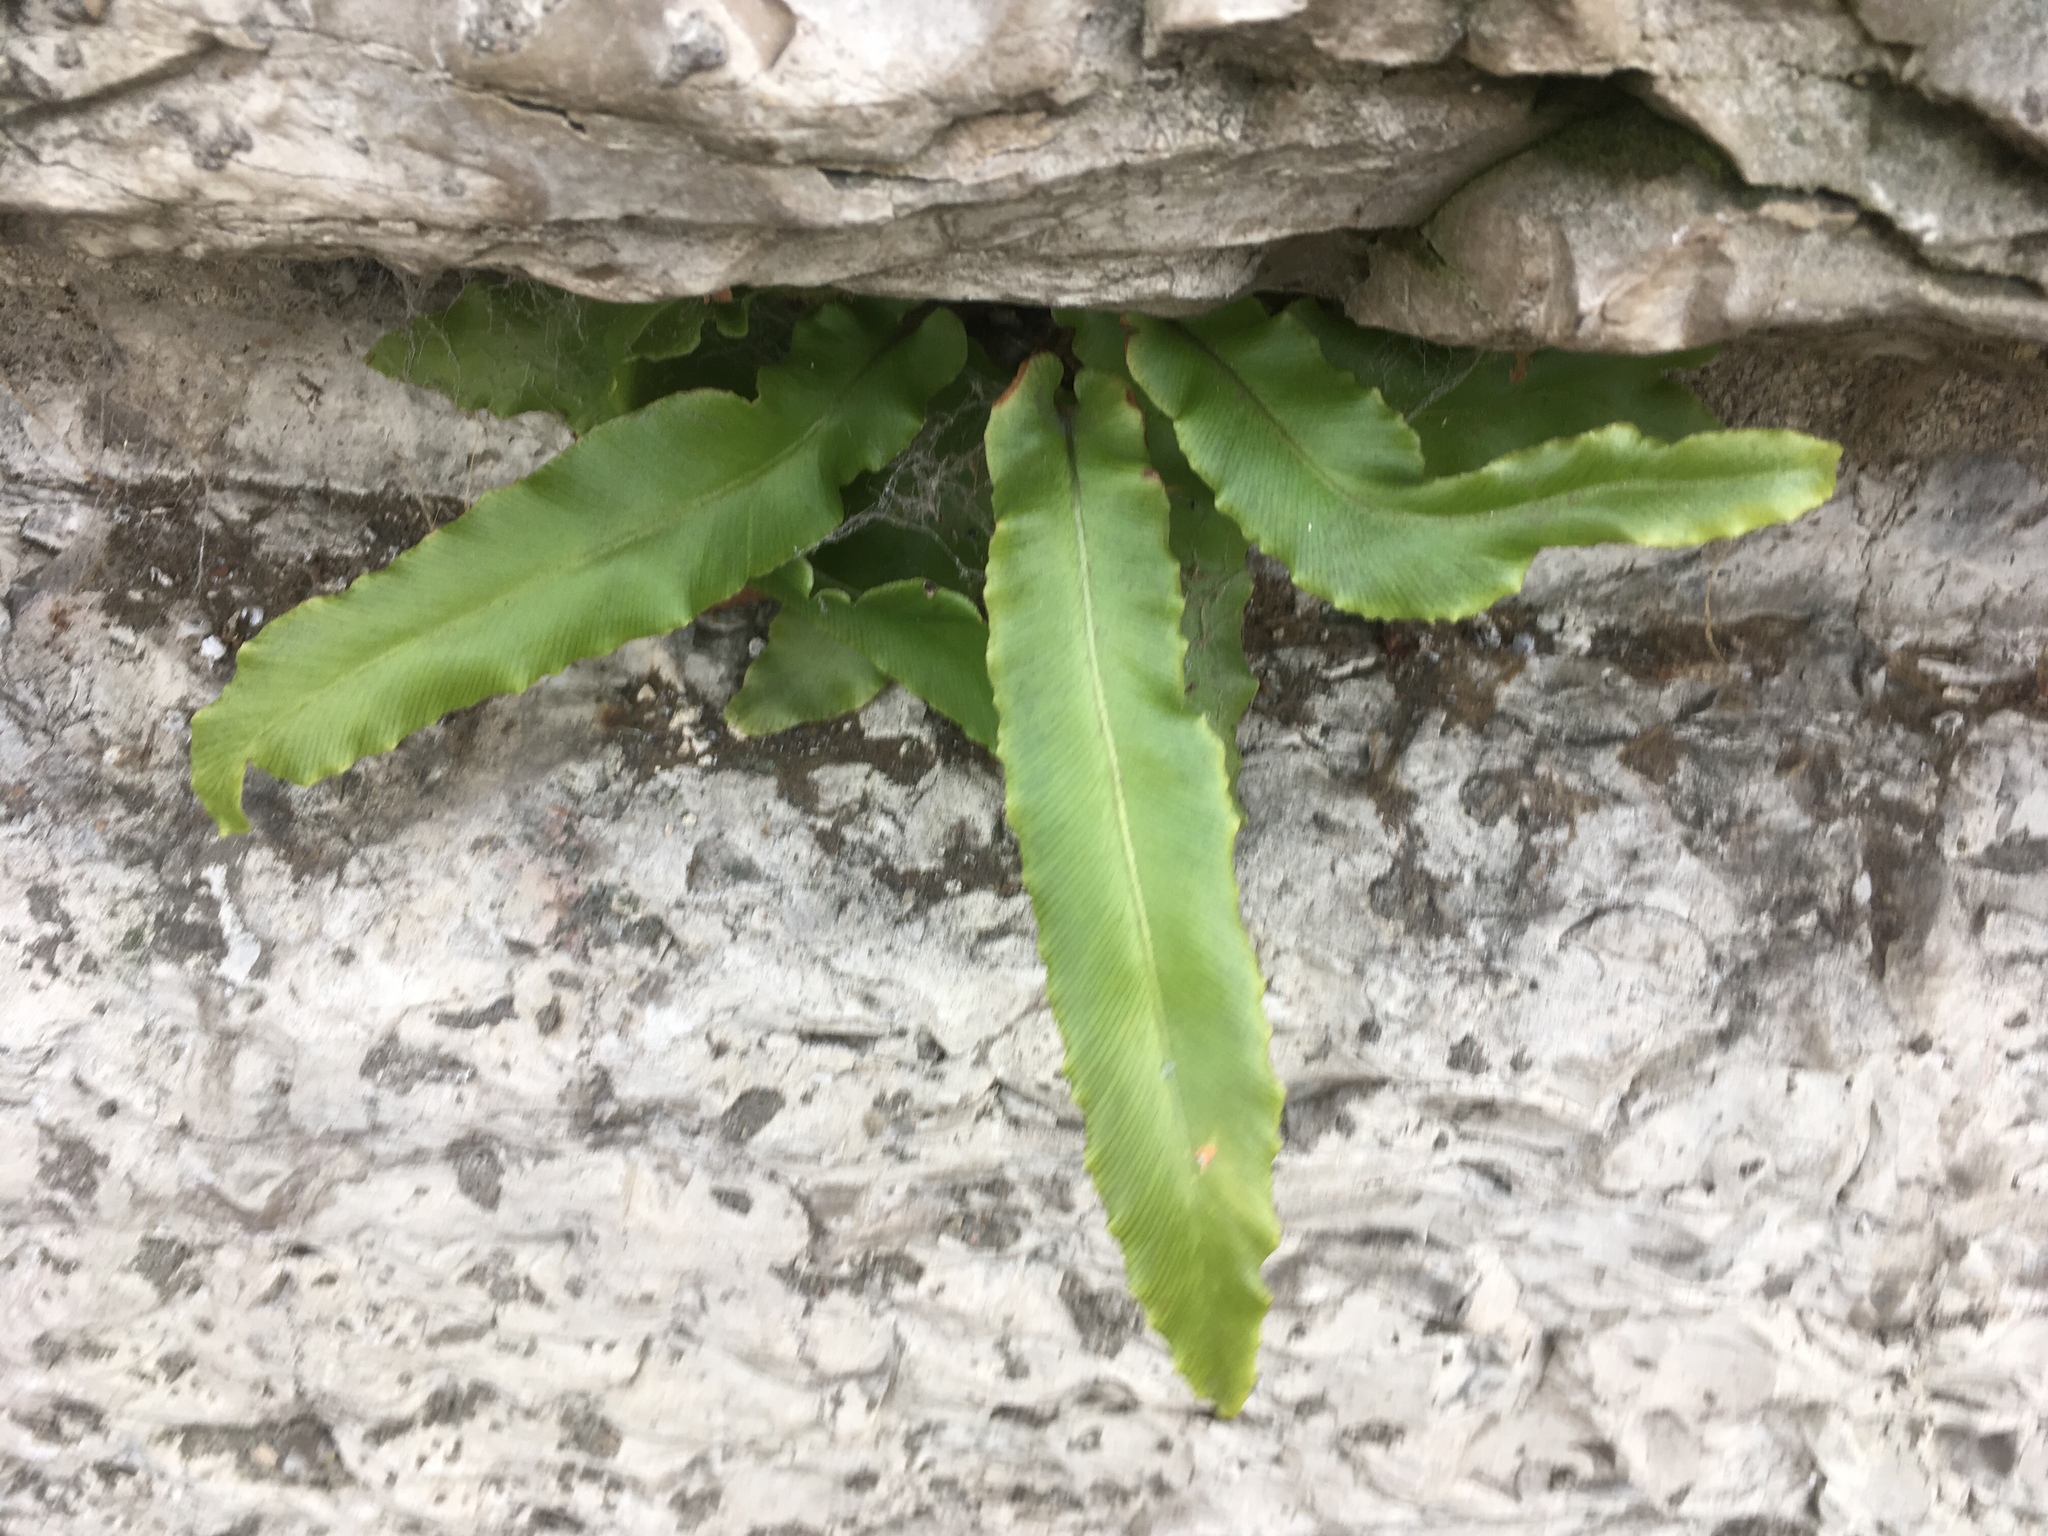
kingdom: Plantae
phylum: Tracheophyta
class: Polypodiopsida
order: Polypodiales
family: Aspleniaceae
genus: Asplenium
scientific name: Asplenium scolopendrium
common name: Hart's-tongue fern
